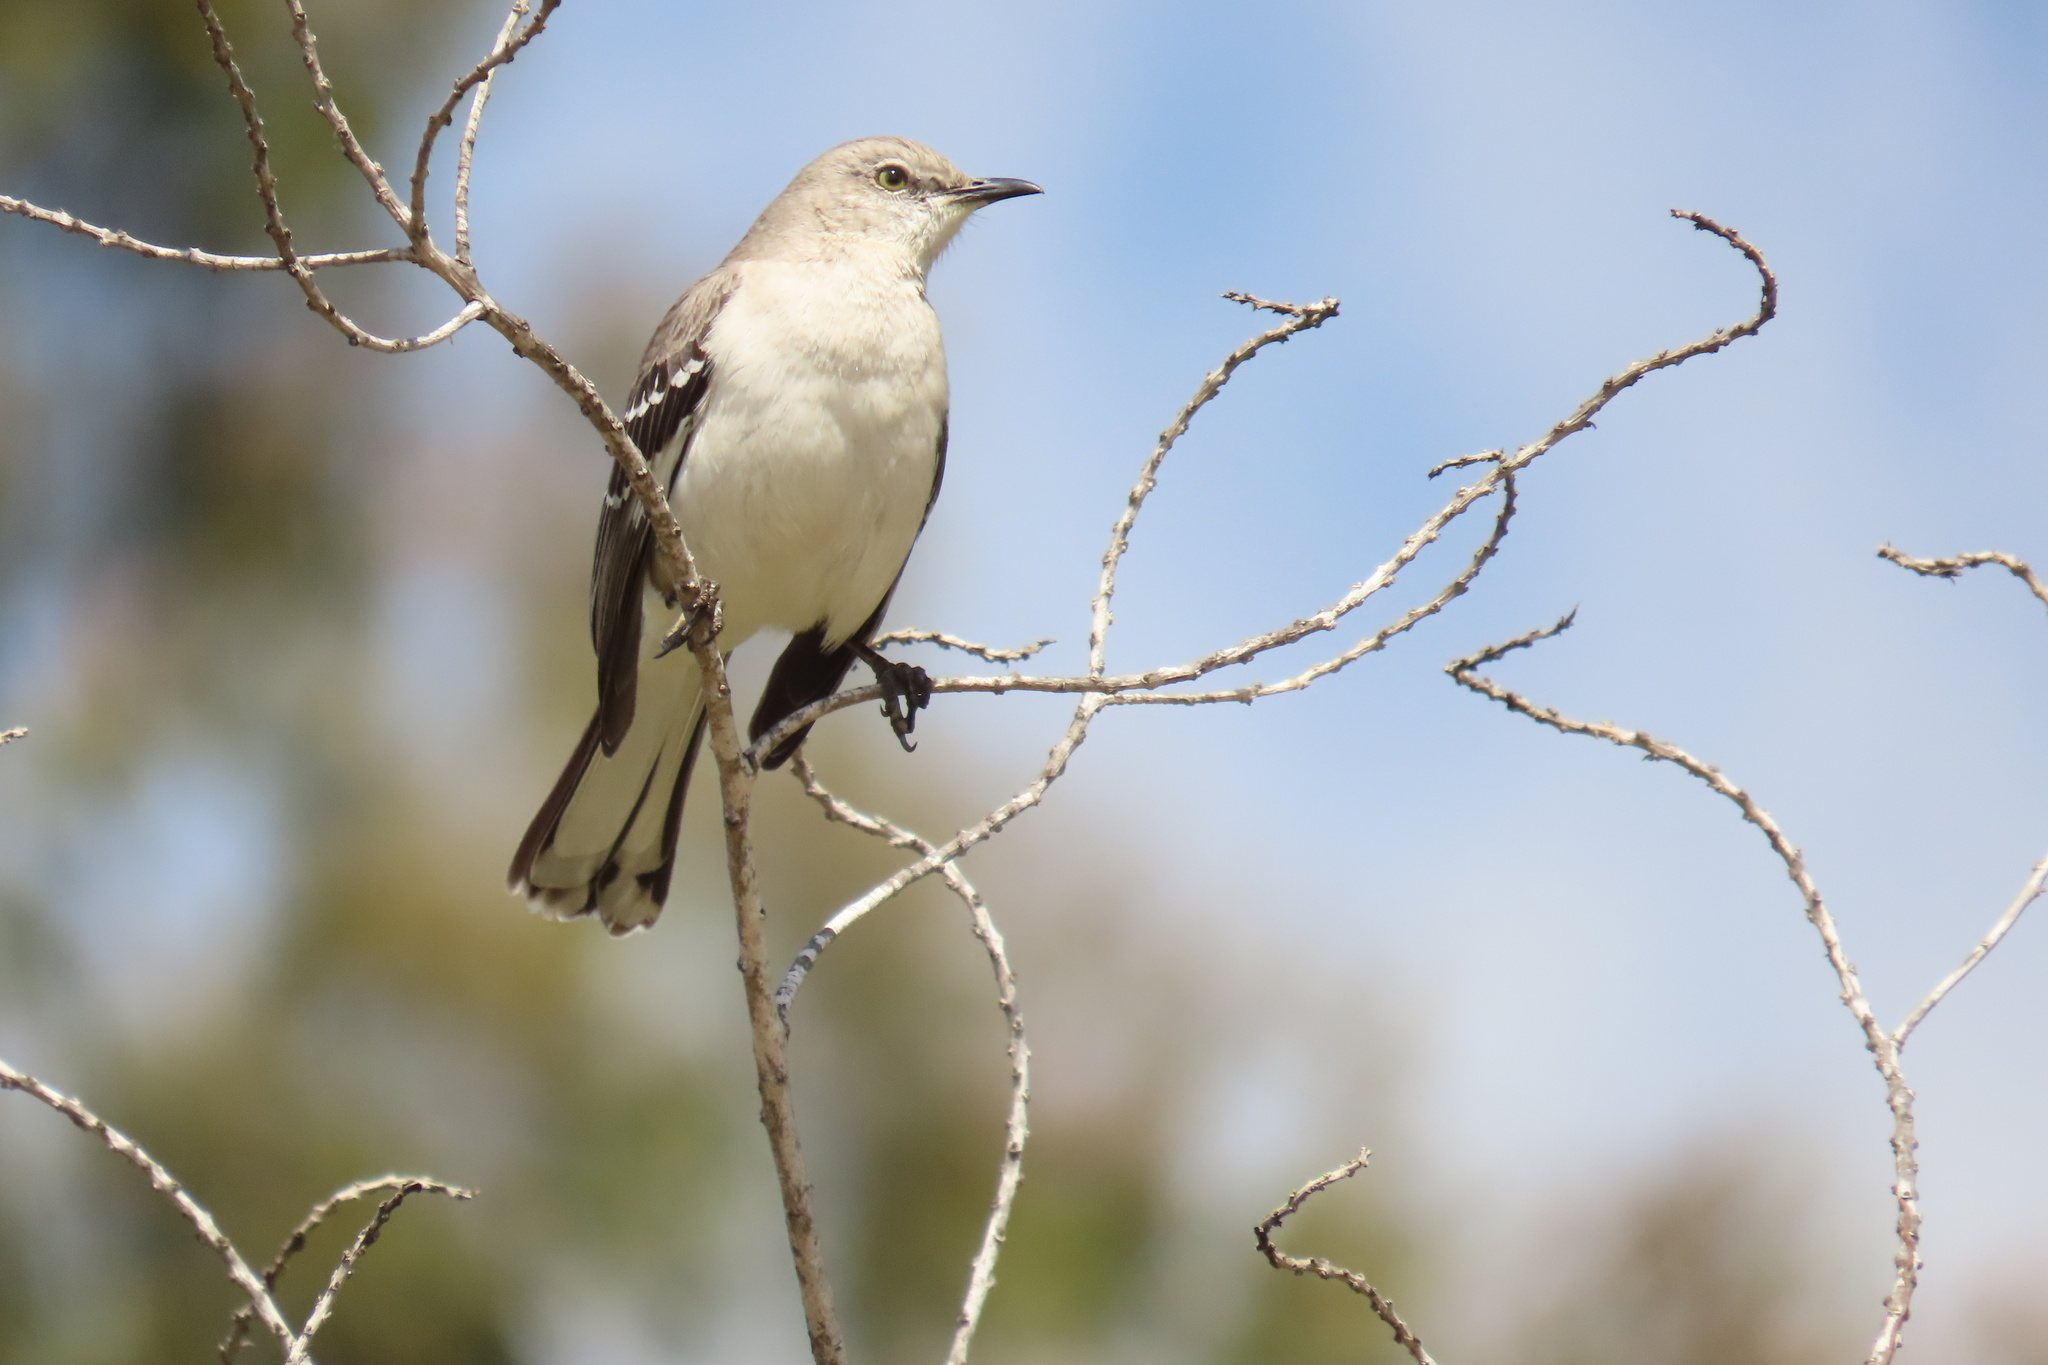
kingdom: Animalia
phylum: Chordata
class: Aves
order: Passeriformes
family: Mimidae
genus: Mimus
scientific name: Mimus polyglottos
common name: Northern mockingbird
